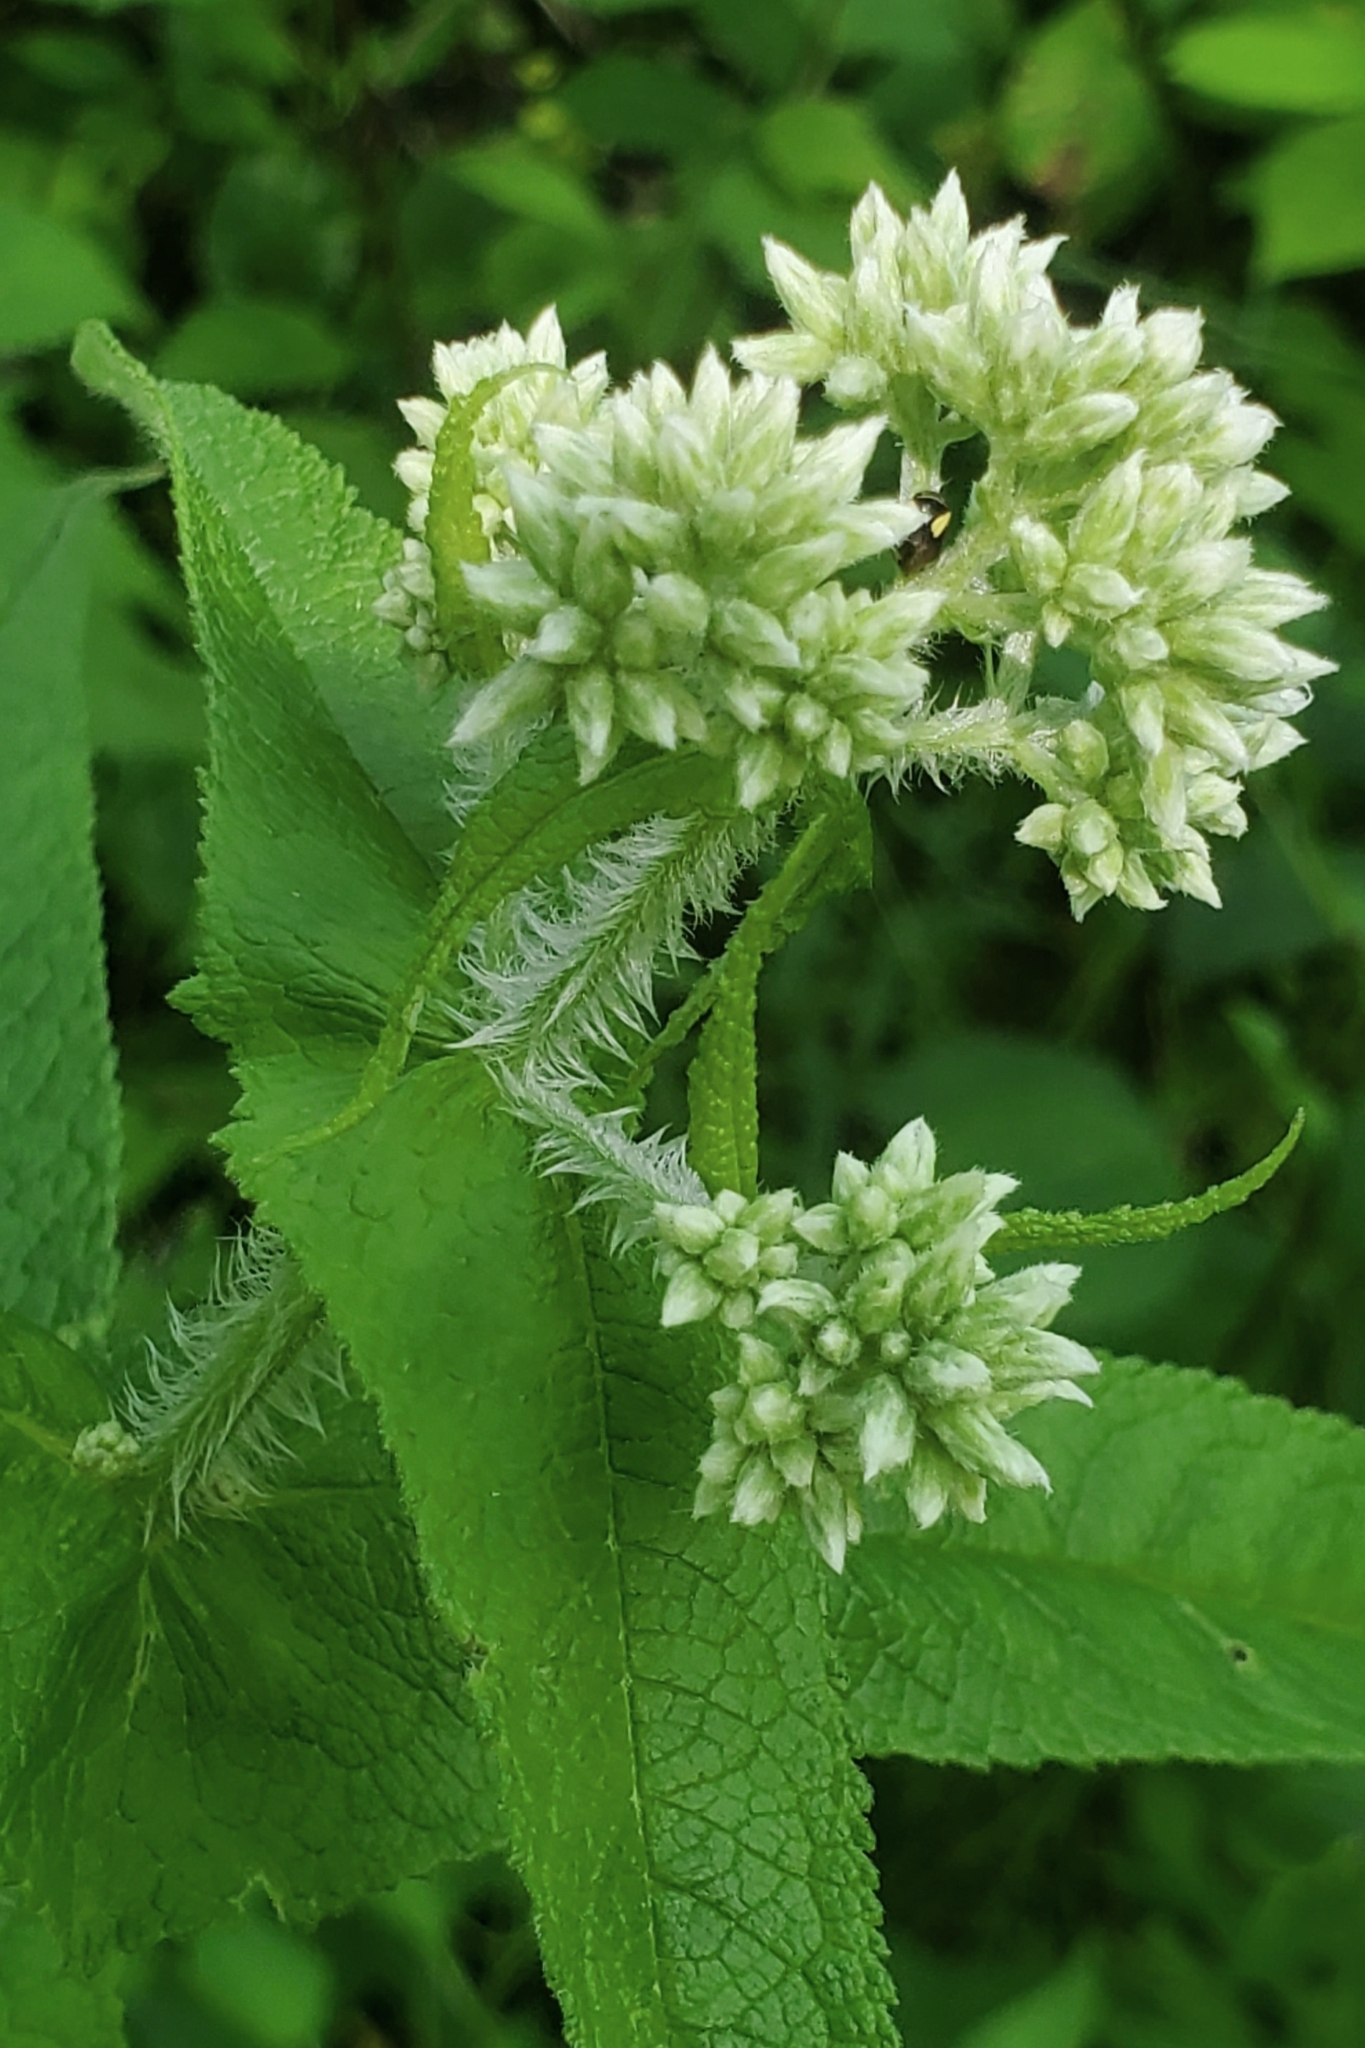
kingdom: Plantae
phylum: Tracheophyta
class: Magnoliopsida
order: Asterales
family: Asteraceae
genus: Eupatorium
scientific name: Eupatorium perfoliatum
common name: Boneset
